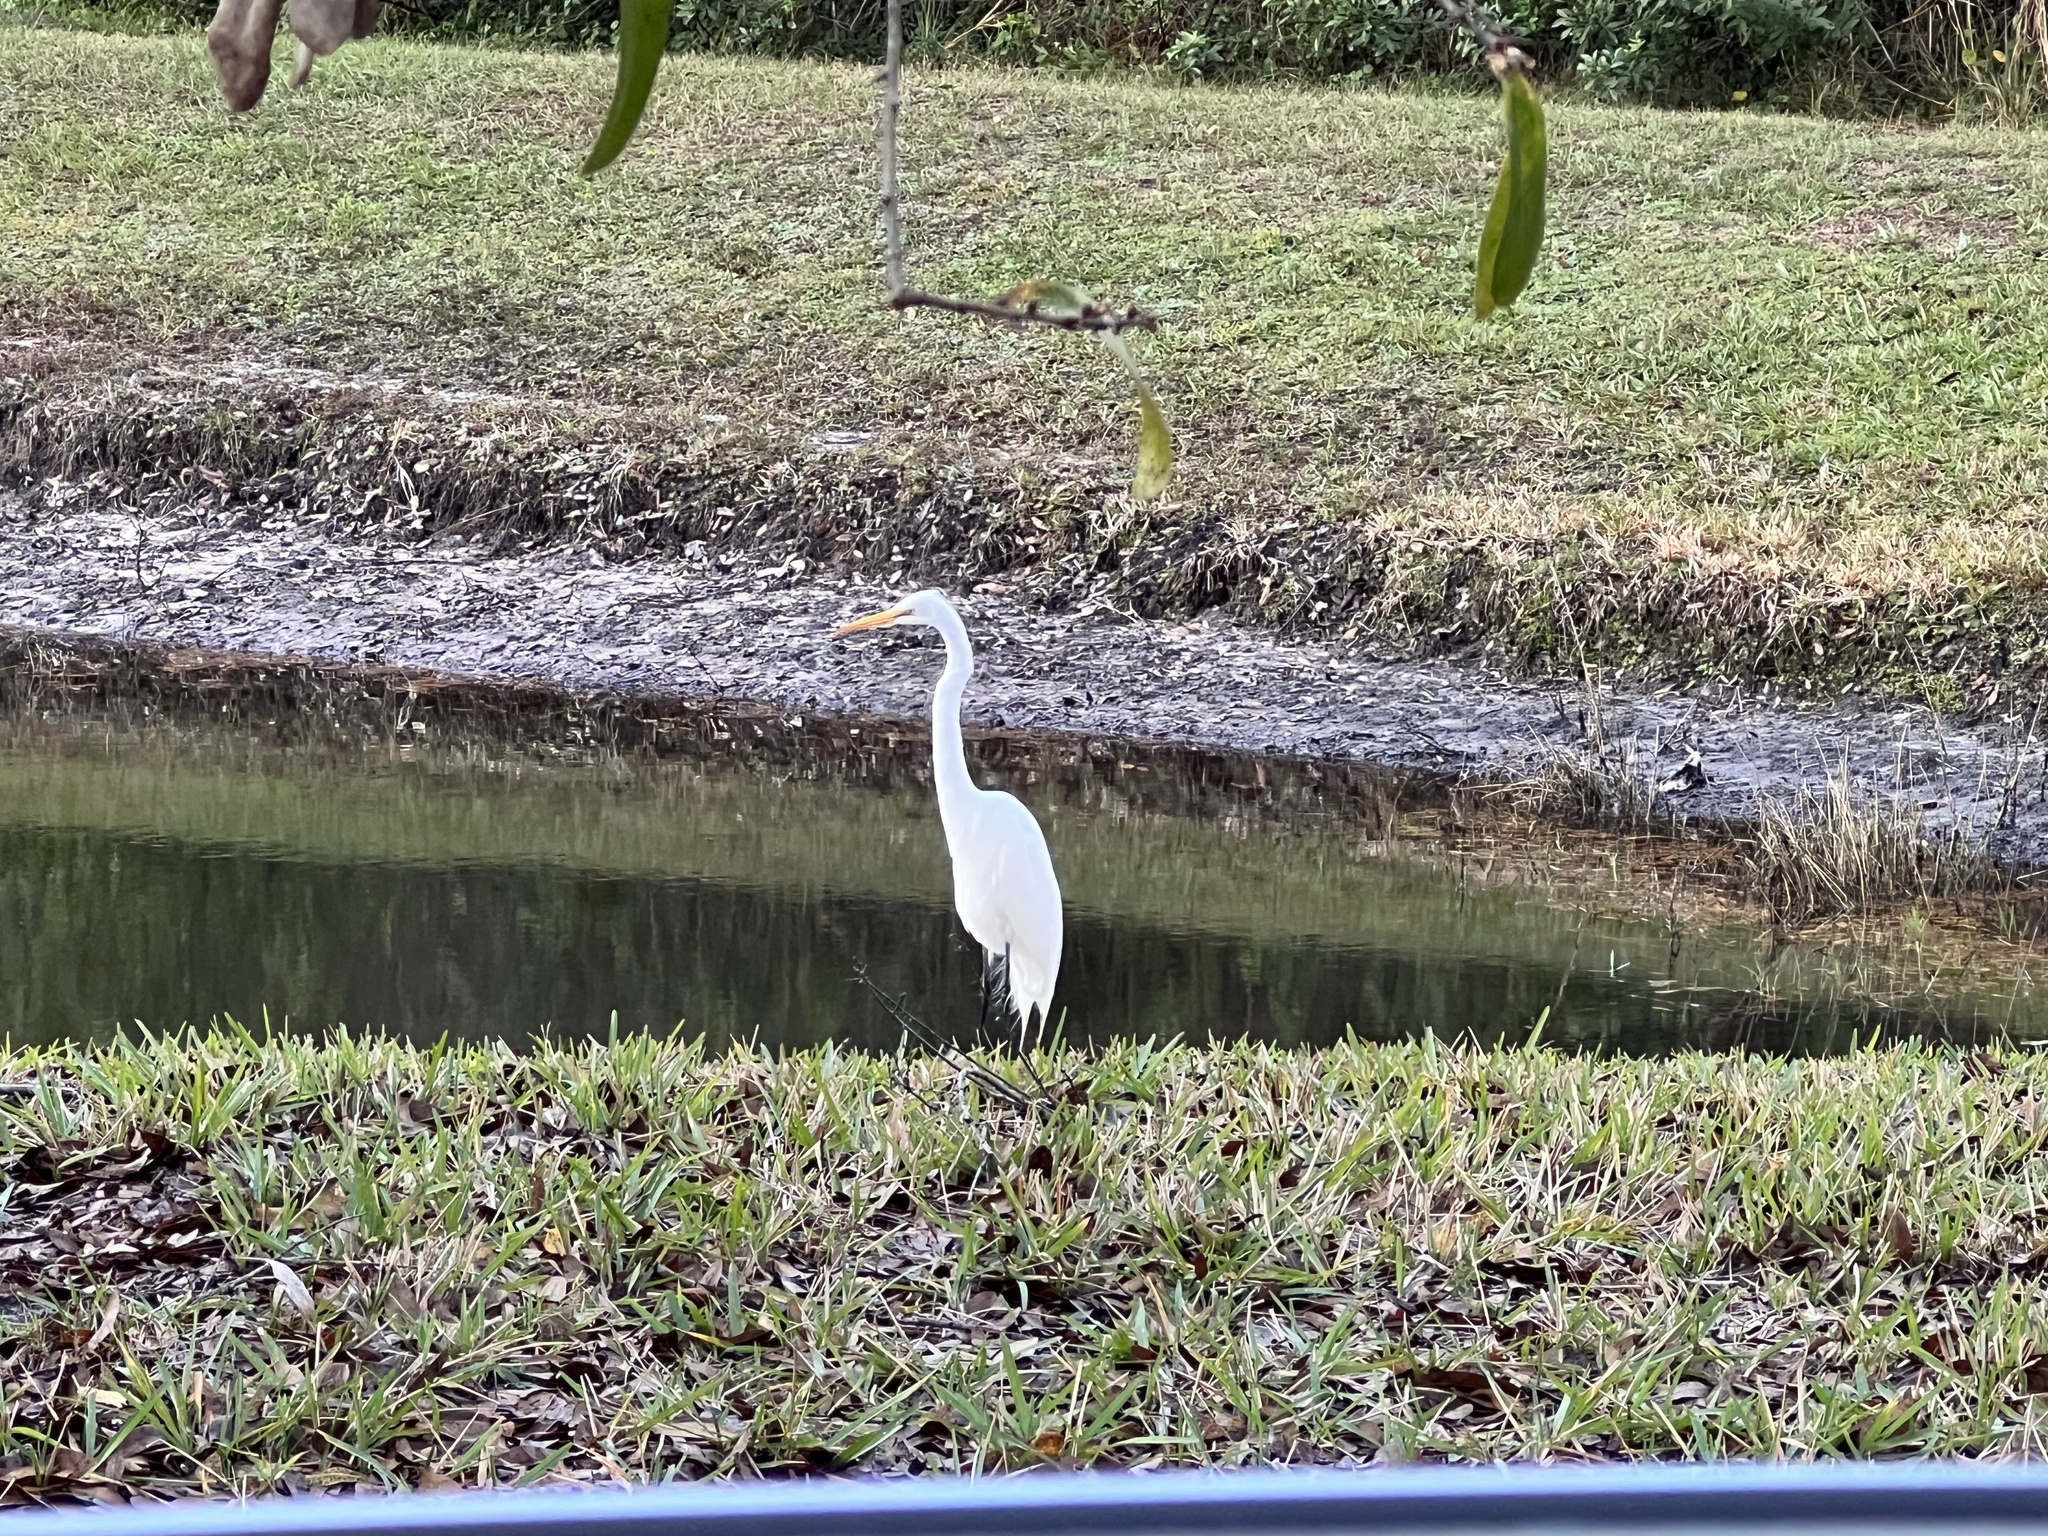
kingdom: Animalia
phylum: Chordata
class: Aves
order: Pelecaniformes
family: Ardeidae
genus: Ardea
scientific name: Ardea alba
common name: Great egret
